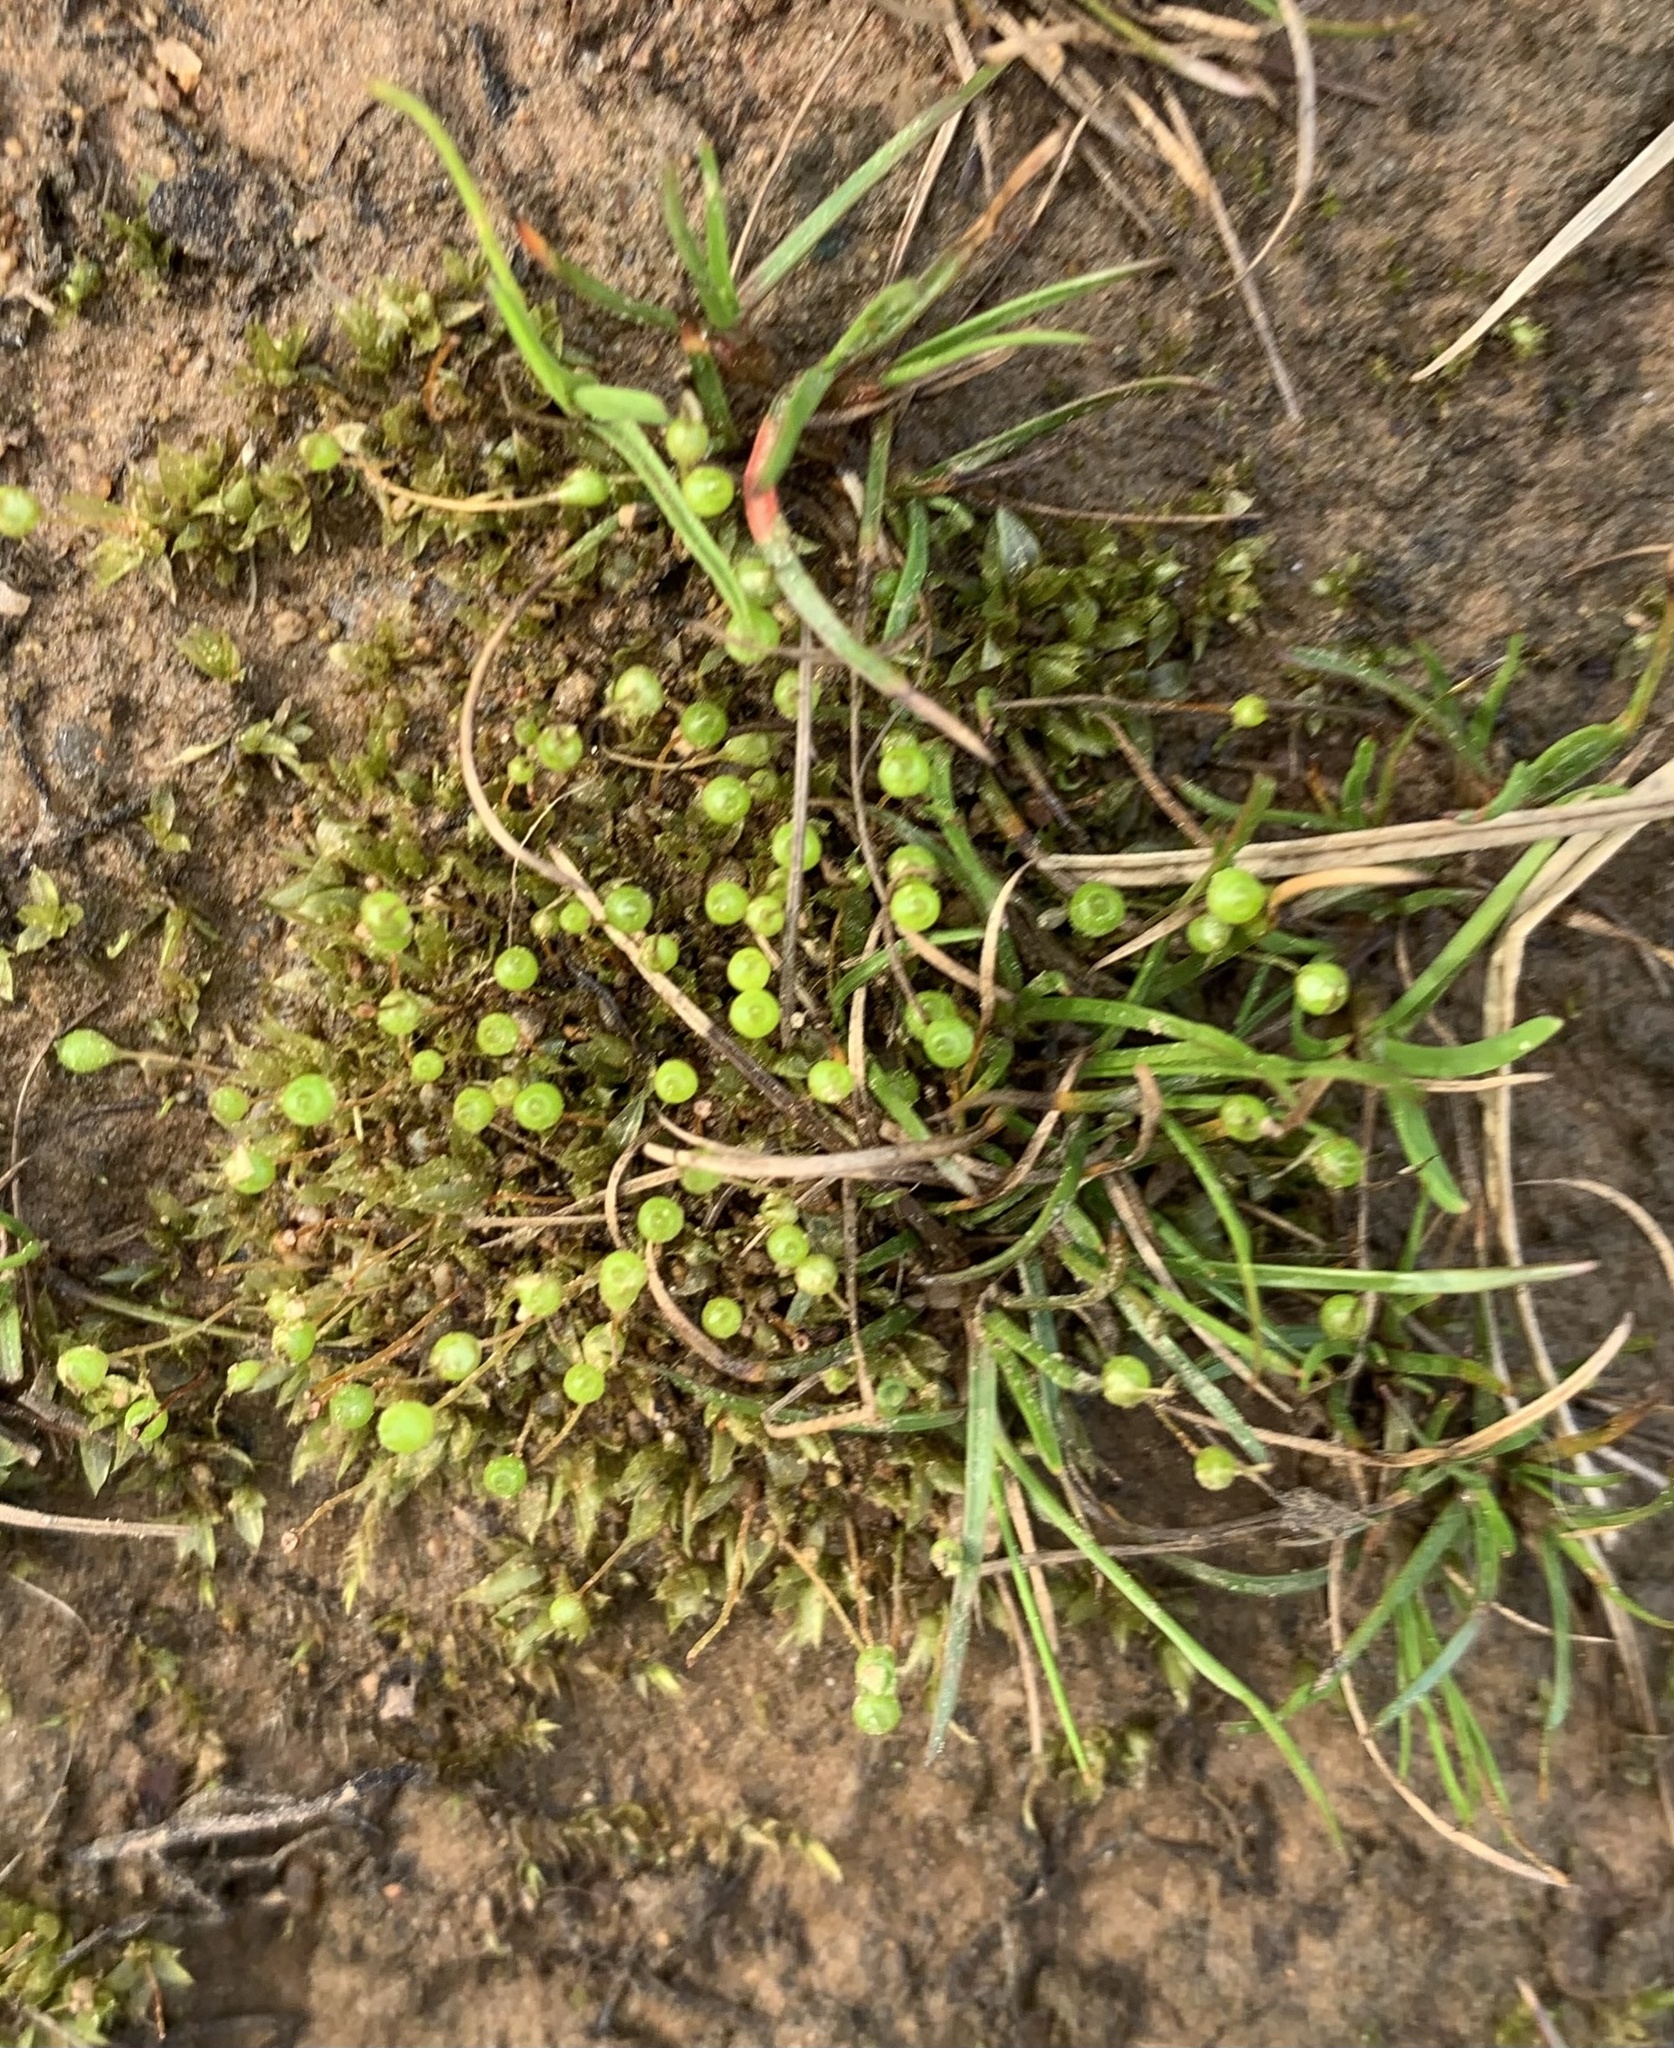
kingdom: Plantae
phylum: Bryophyta
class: Bryopsida
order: Funariales
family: Funariaceae
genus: Physcomitrium
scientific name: Physcomitrium pyriforme
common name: Common bladder-moss
